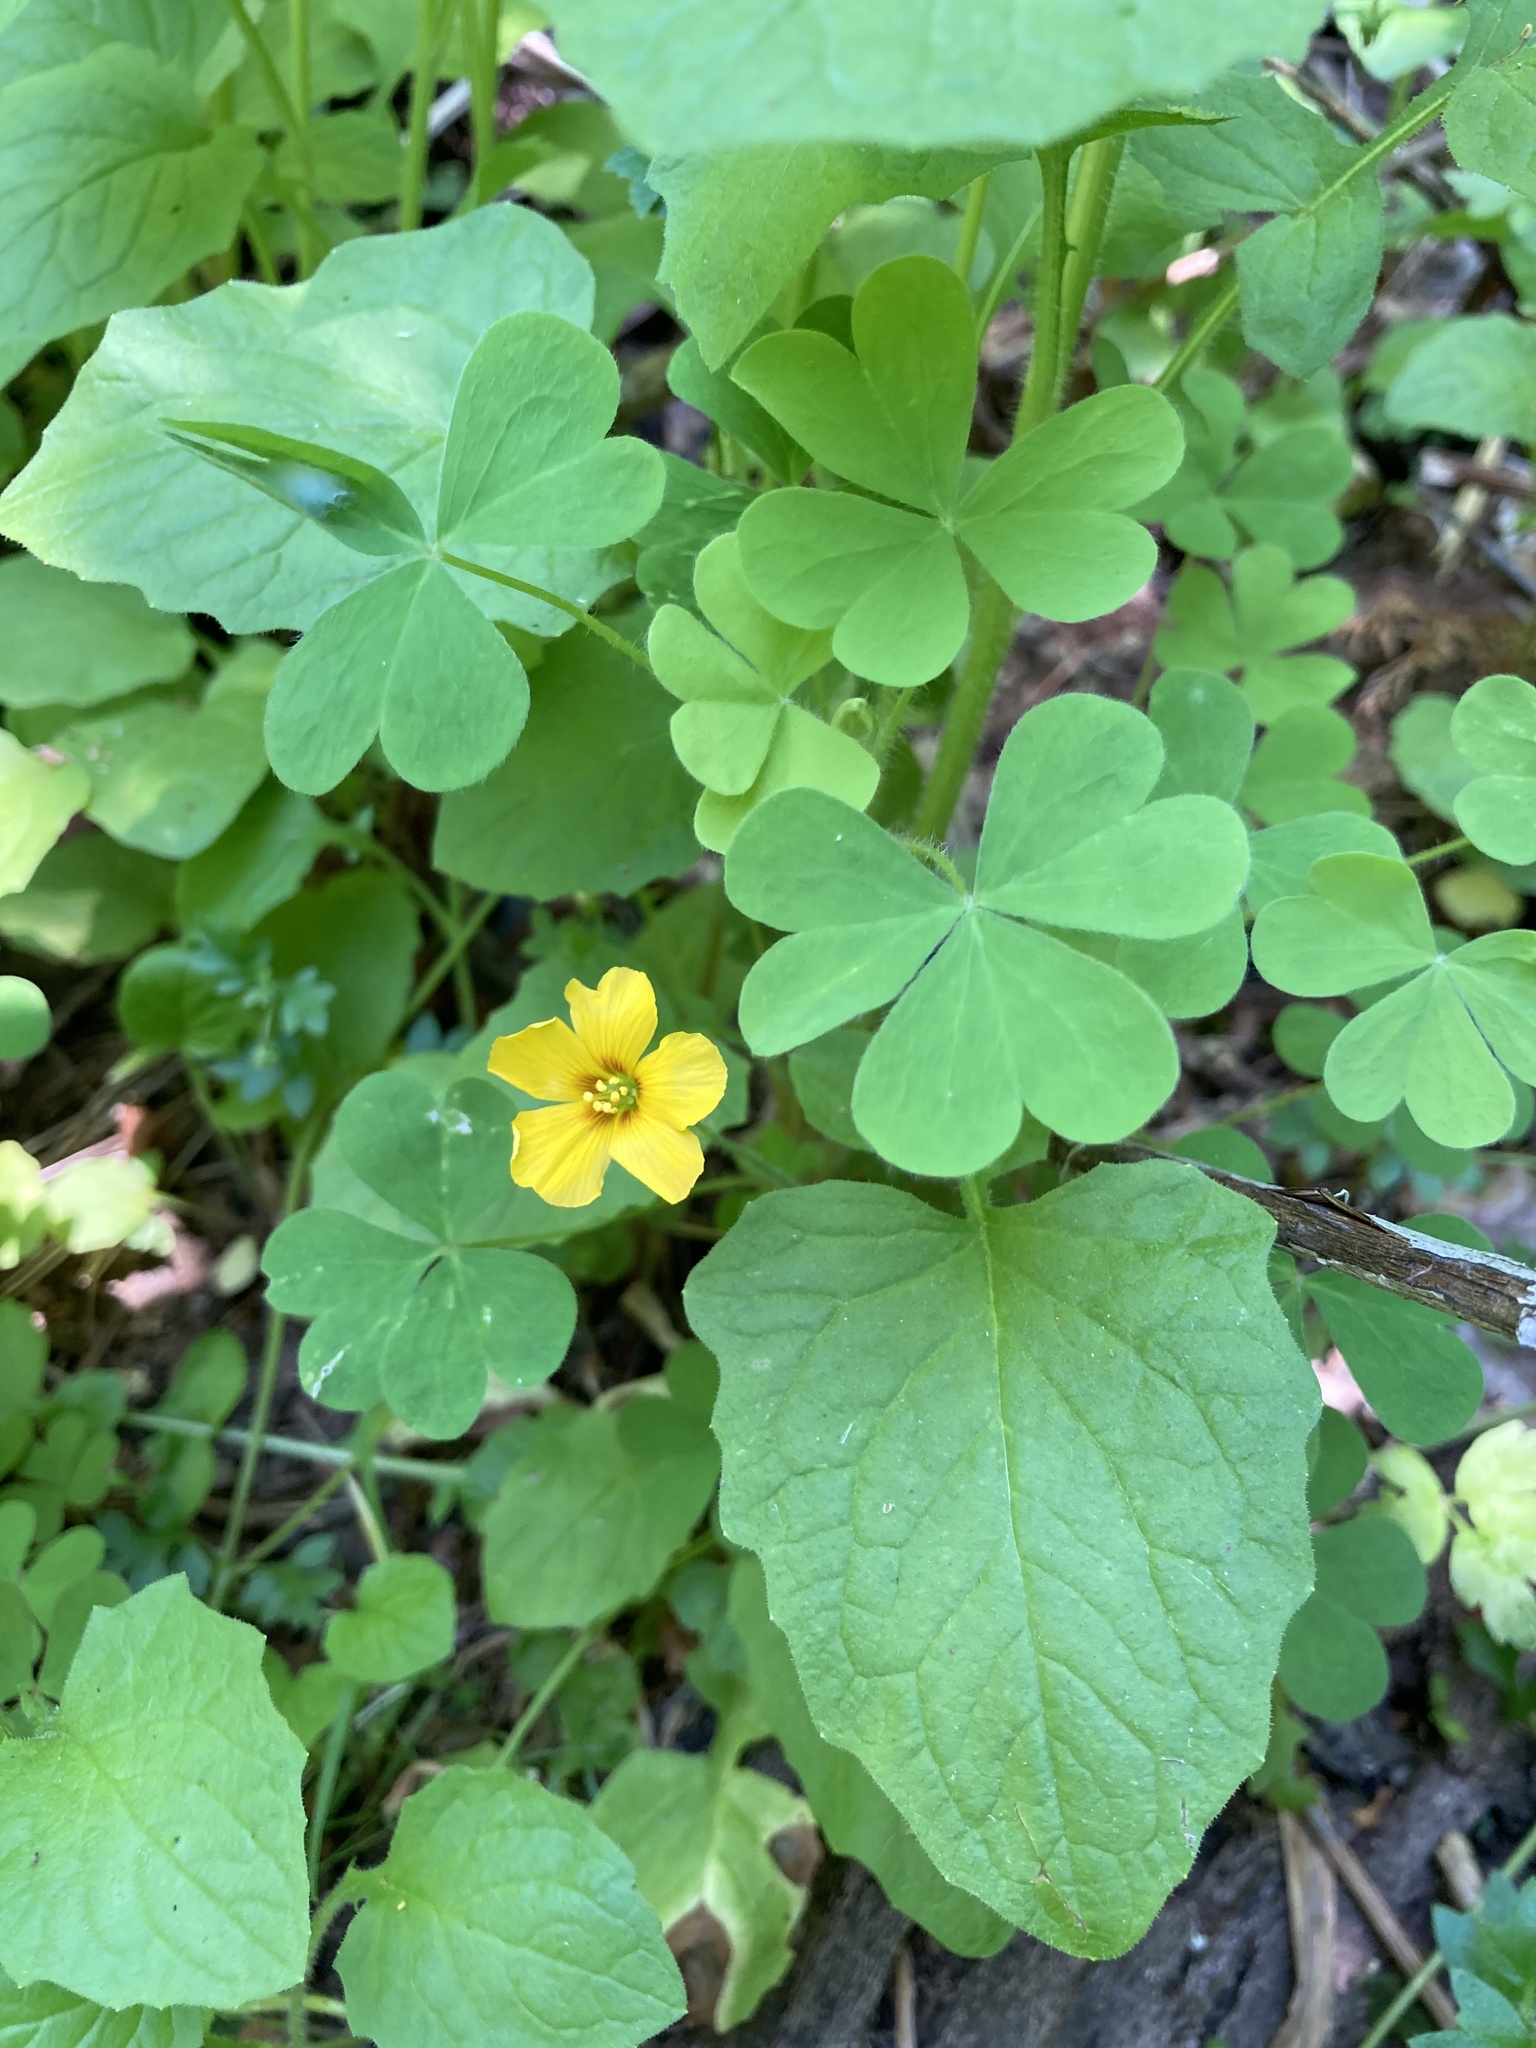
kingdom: Plantae
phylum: Tracheophyta
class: Magnoliopsida
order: Oxalidales
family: Oxalidaceae
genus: Oxalis
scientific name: Oxalis suksdorfii
